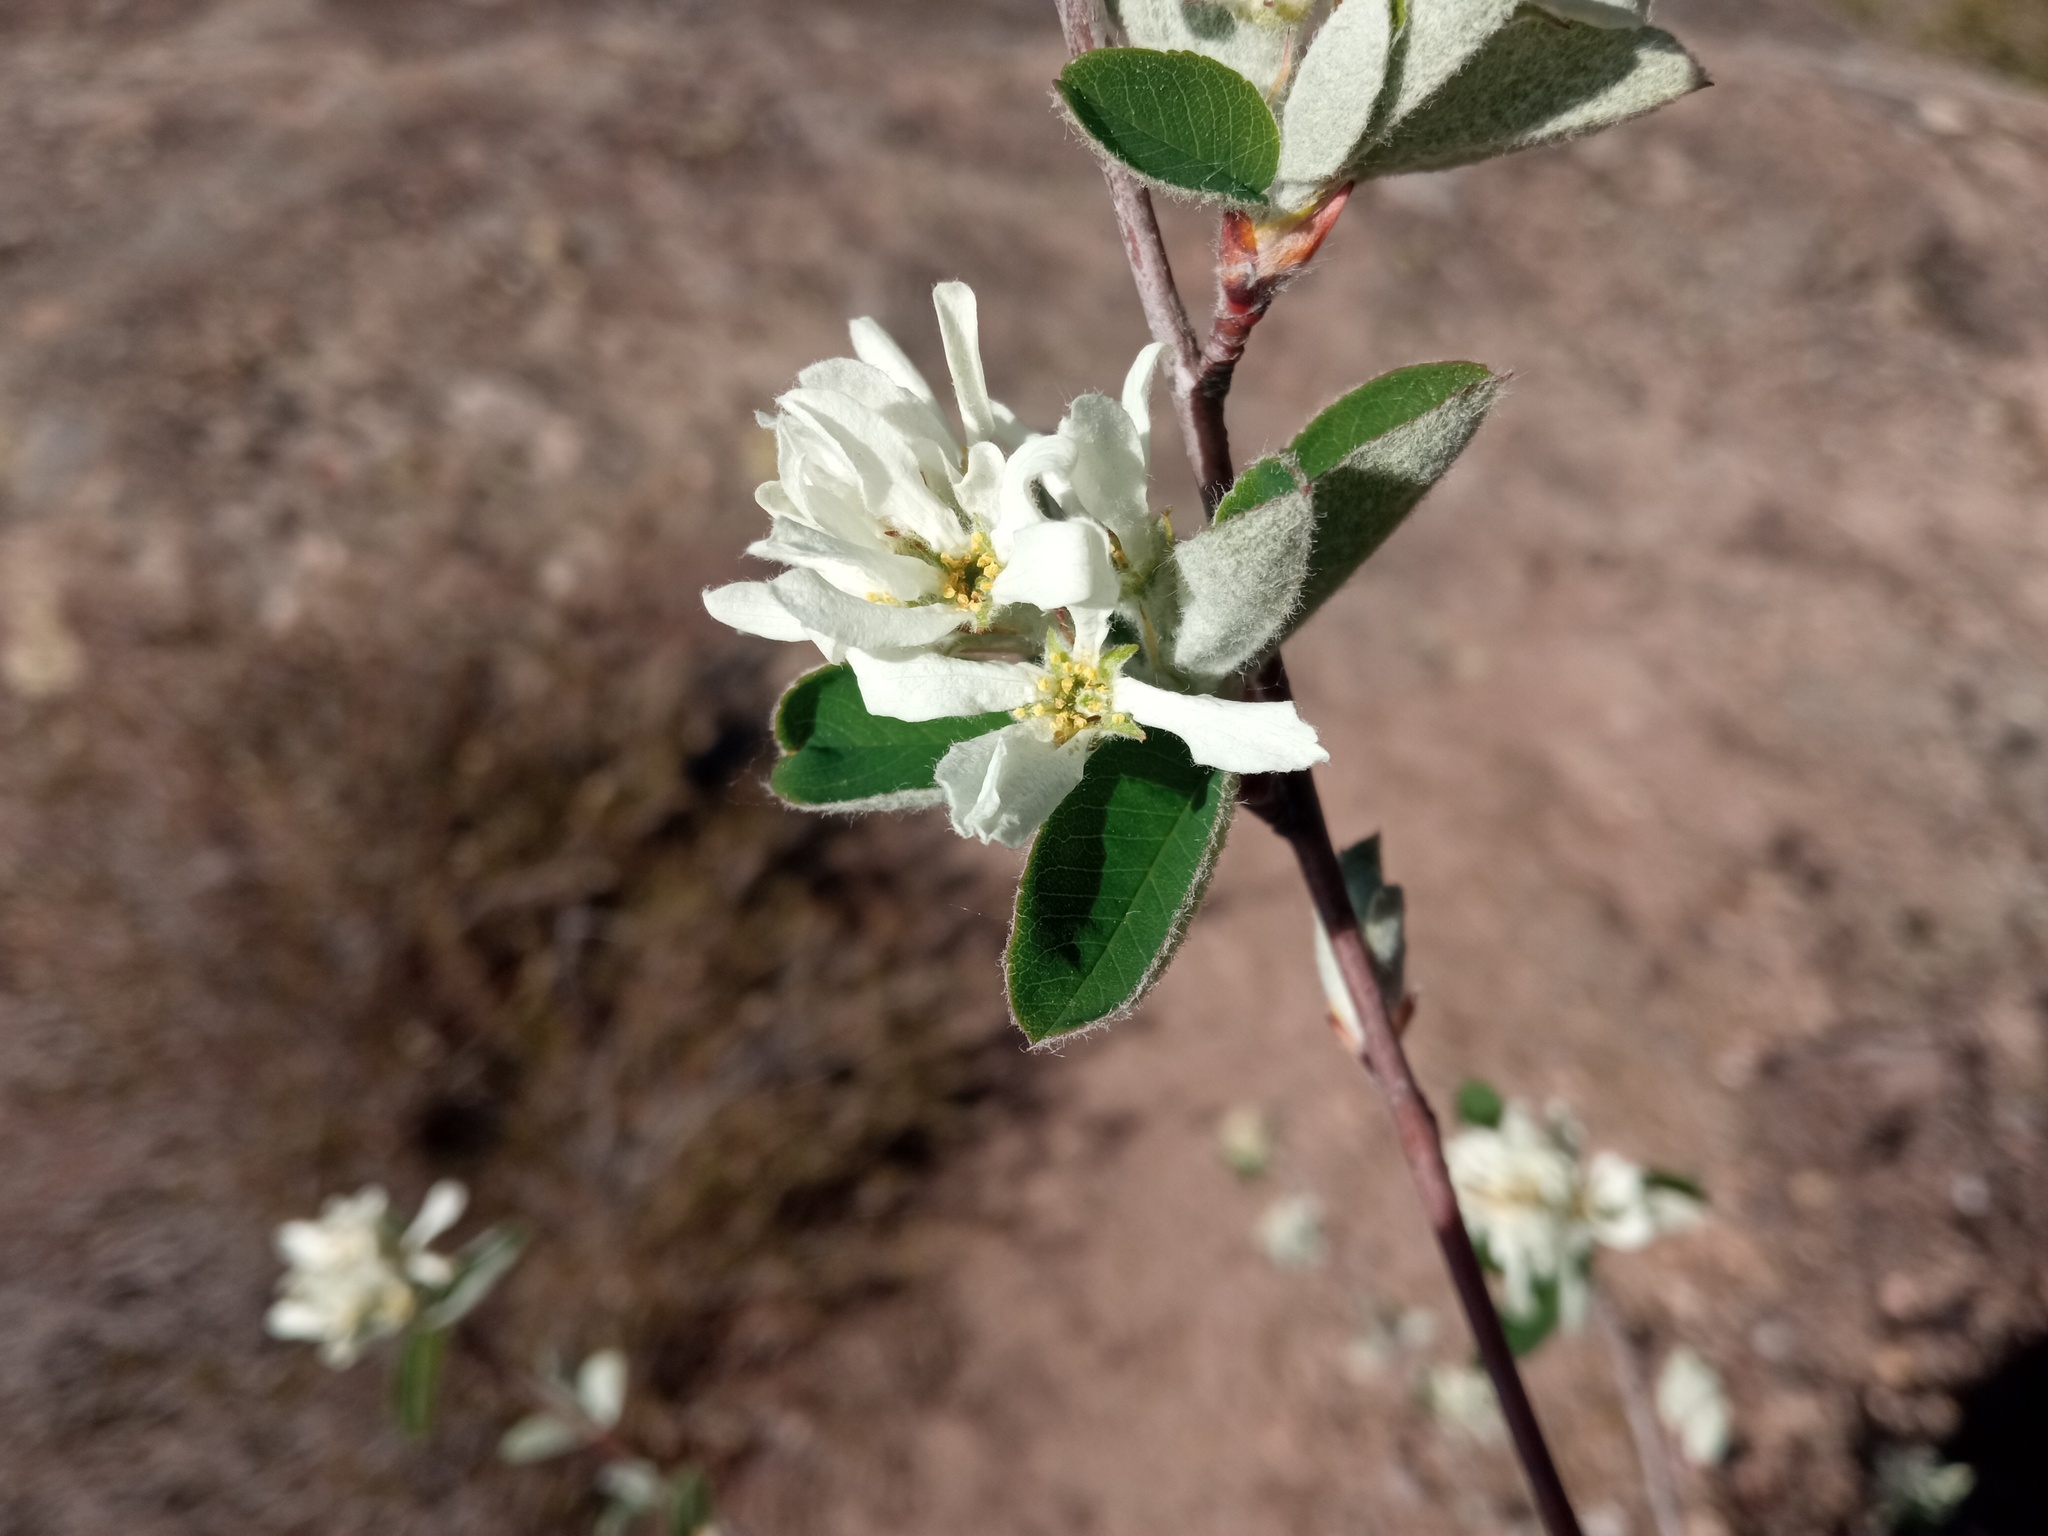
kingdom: Plantae
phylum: Tracheophyta
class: Magnoliopsida
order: Rosales
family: Rosaceae
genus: Amelanchier
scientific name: Amelanchier ovalis
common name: Serviceberry
